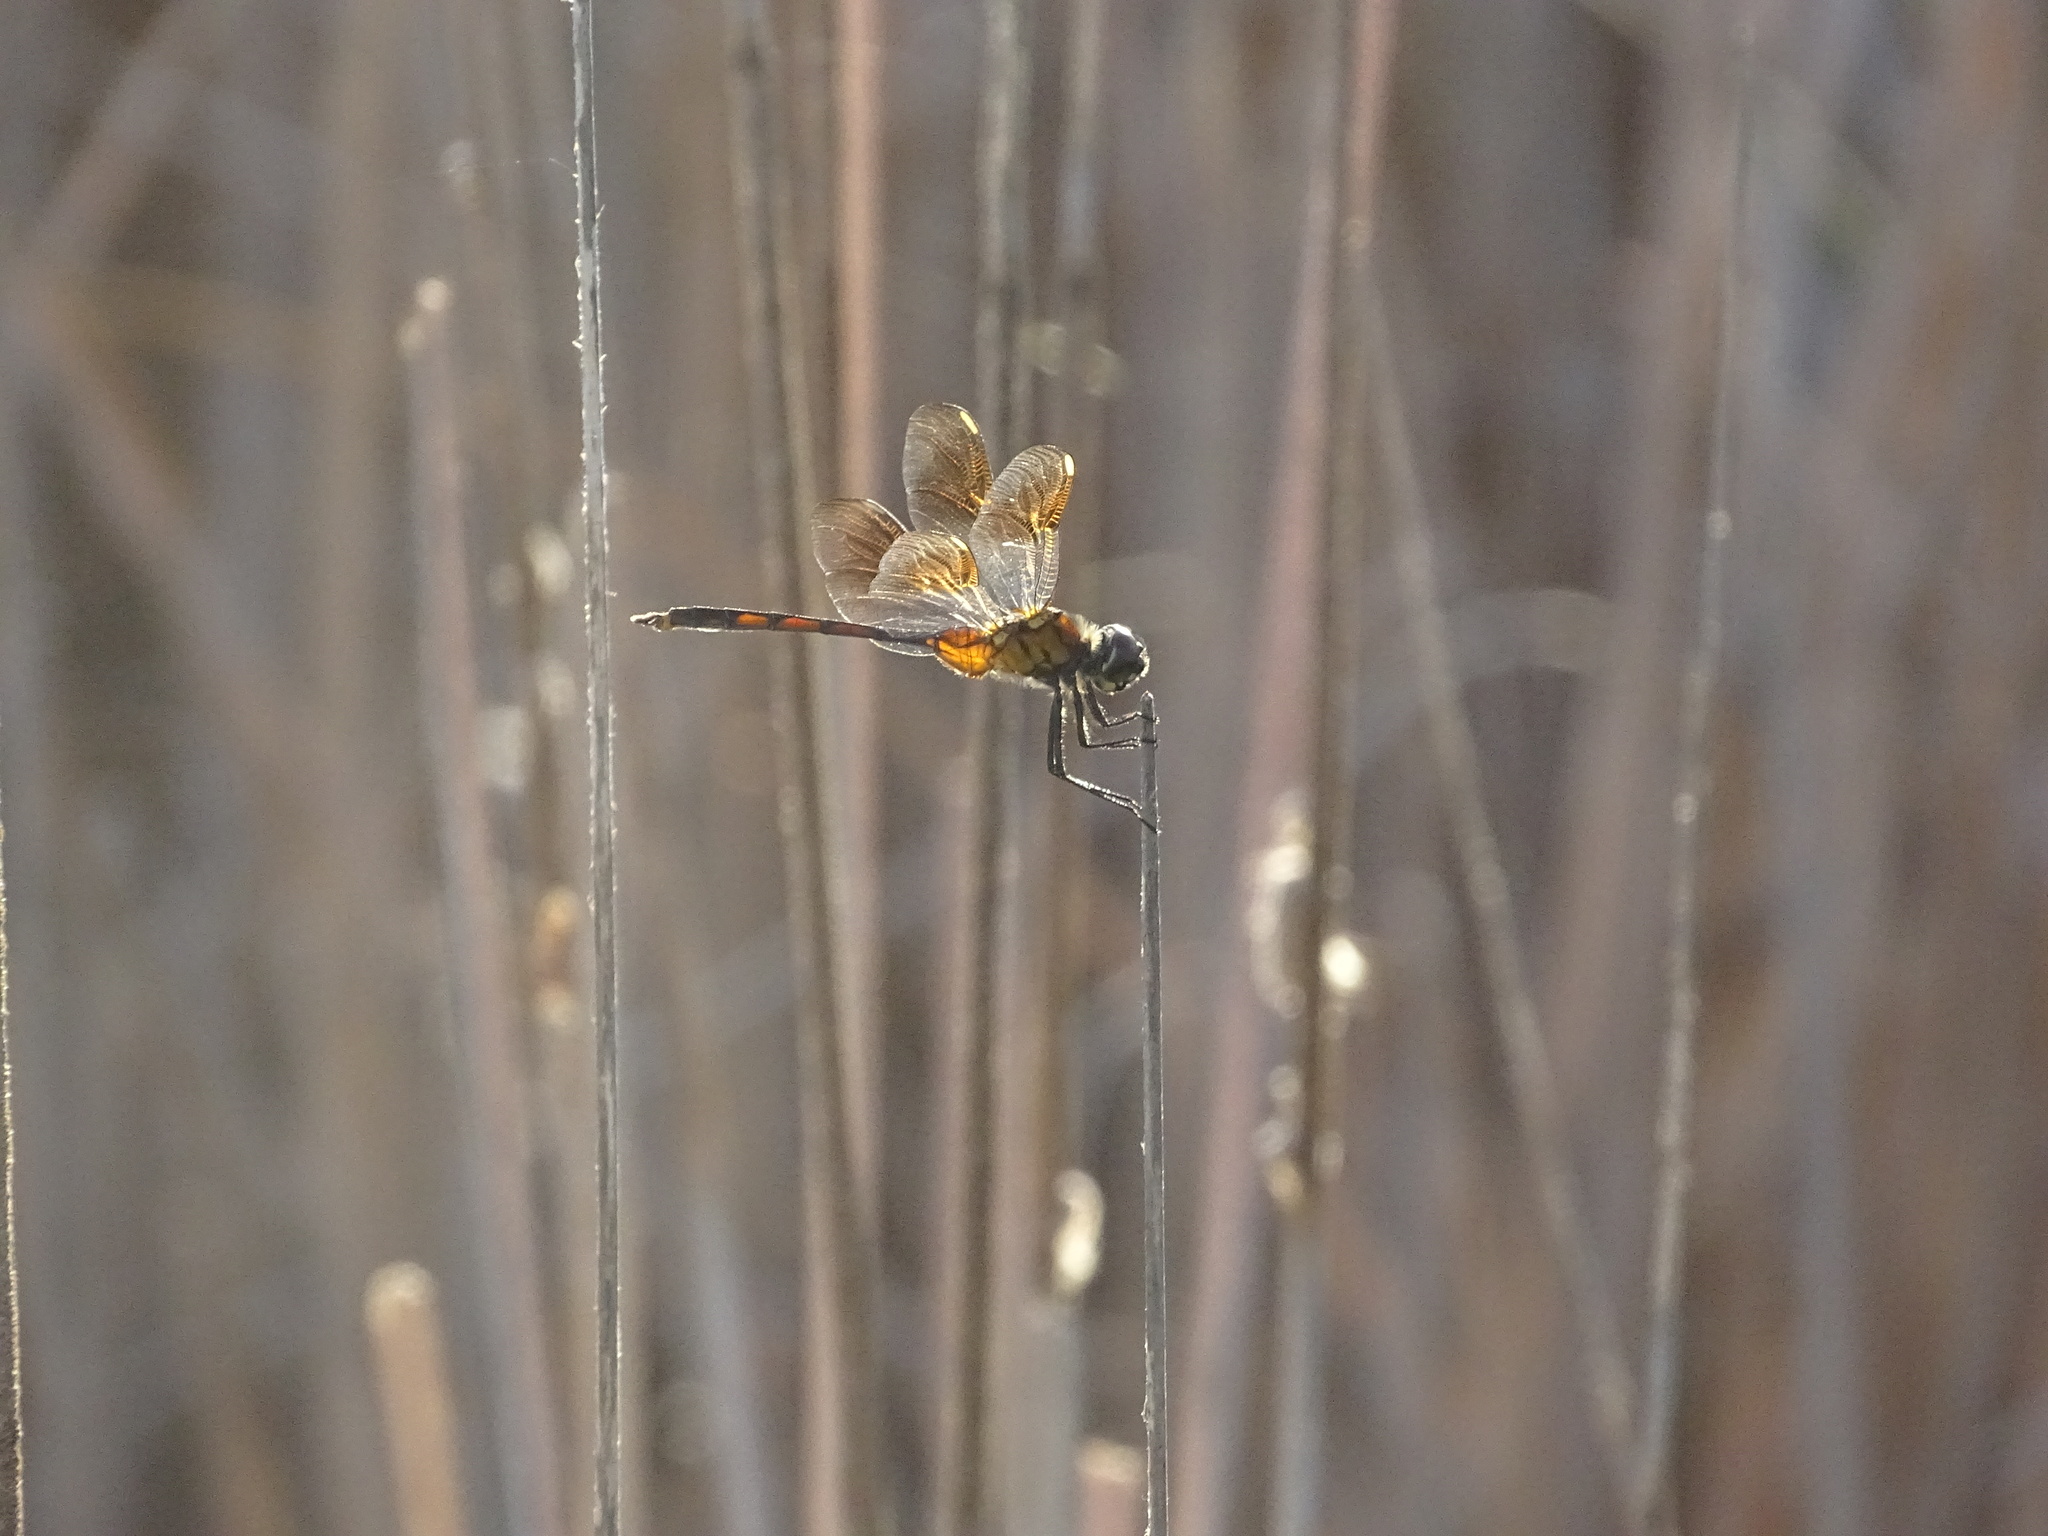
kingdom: Animalia
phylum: Arthropoda
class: Insecta
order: Odonata
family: Libellulidae
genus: Brachymesia
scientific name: Brachymesia gravida
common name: Four-spotted pennant
